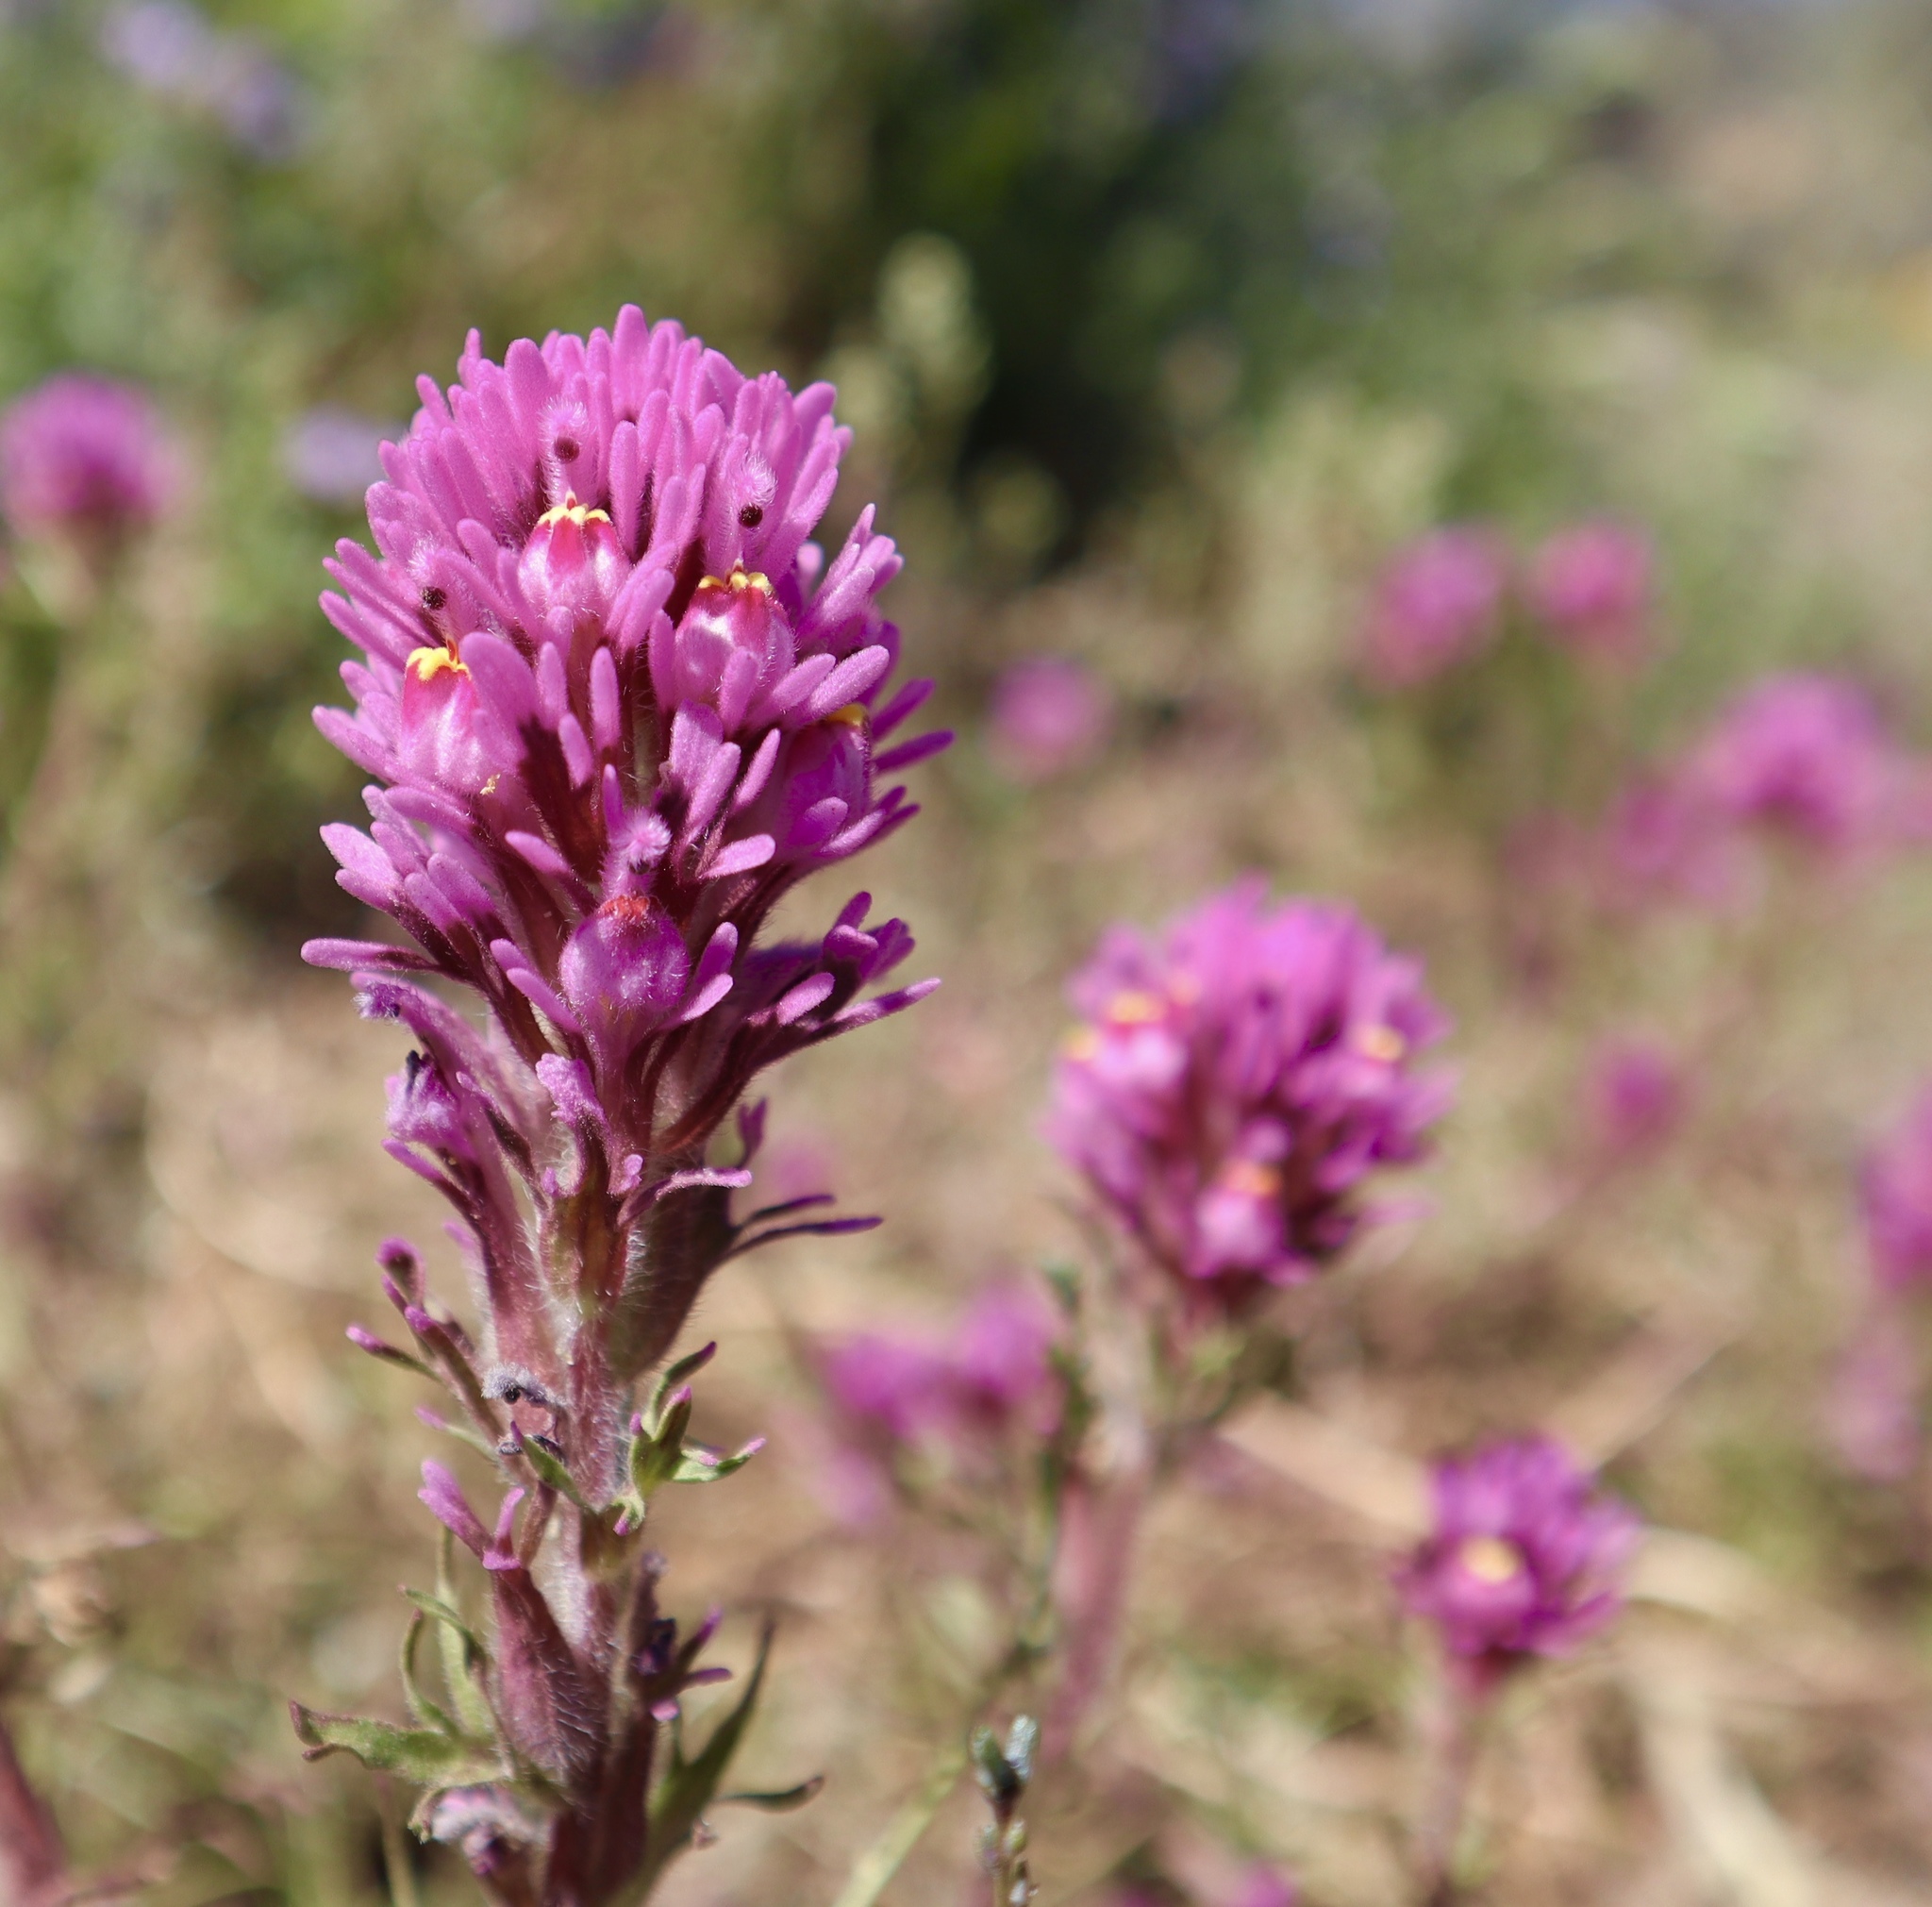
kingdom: Plantae
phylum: Tracheophyta
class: Magnoliopsida
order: Lamiales
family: Orobanchaceae
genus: Castilleja
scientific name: Castilleja exserta
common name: Purple owl-clover
